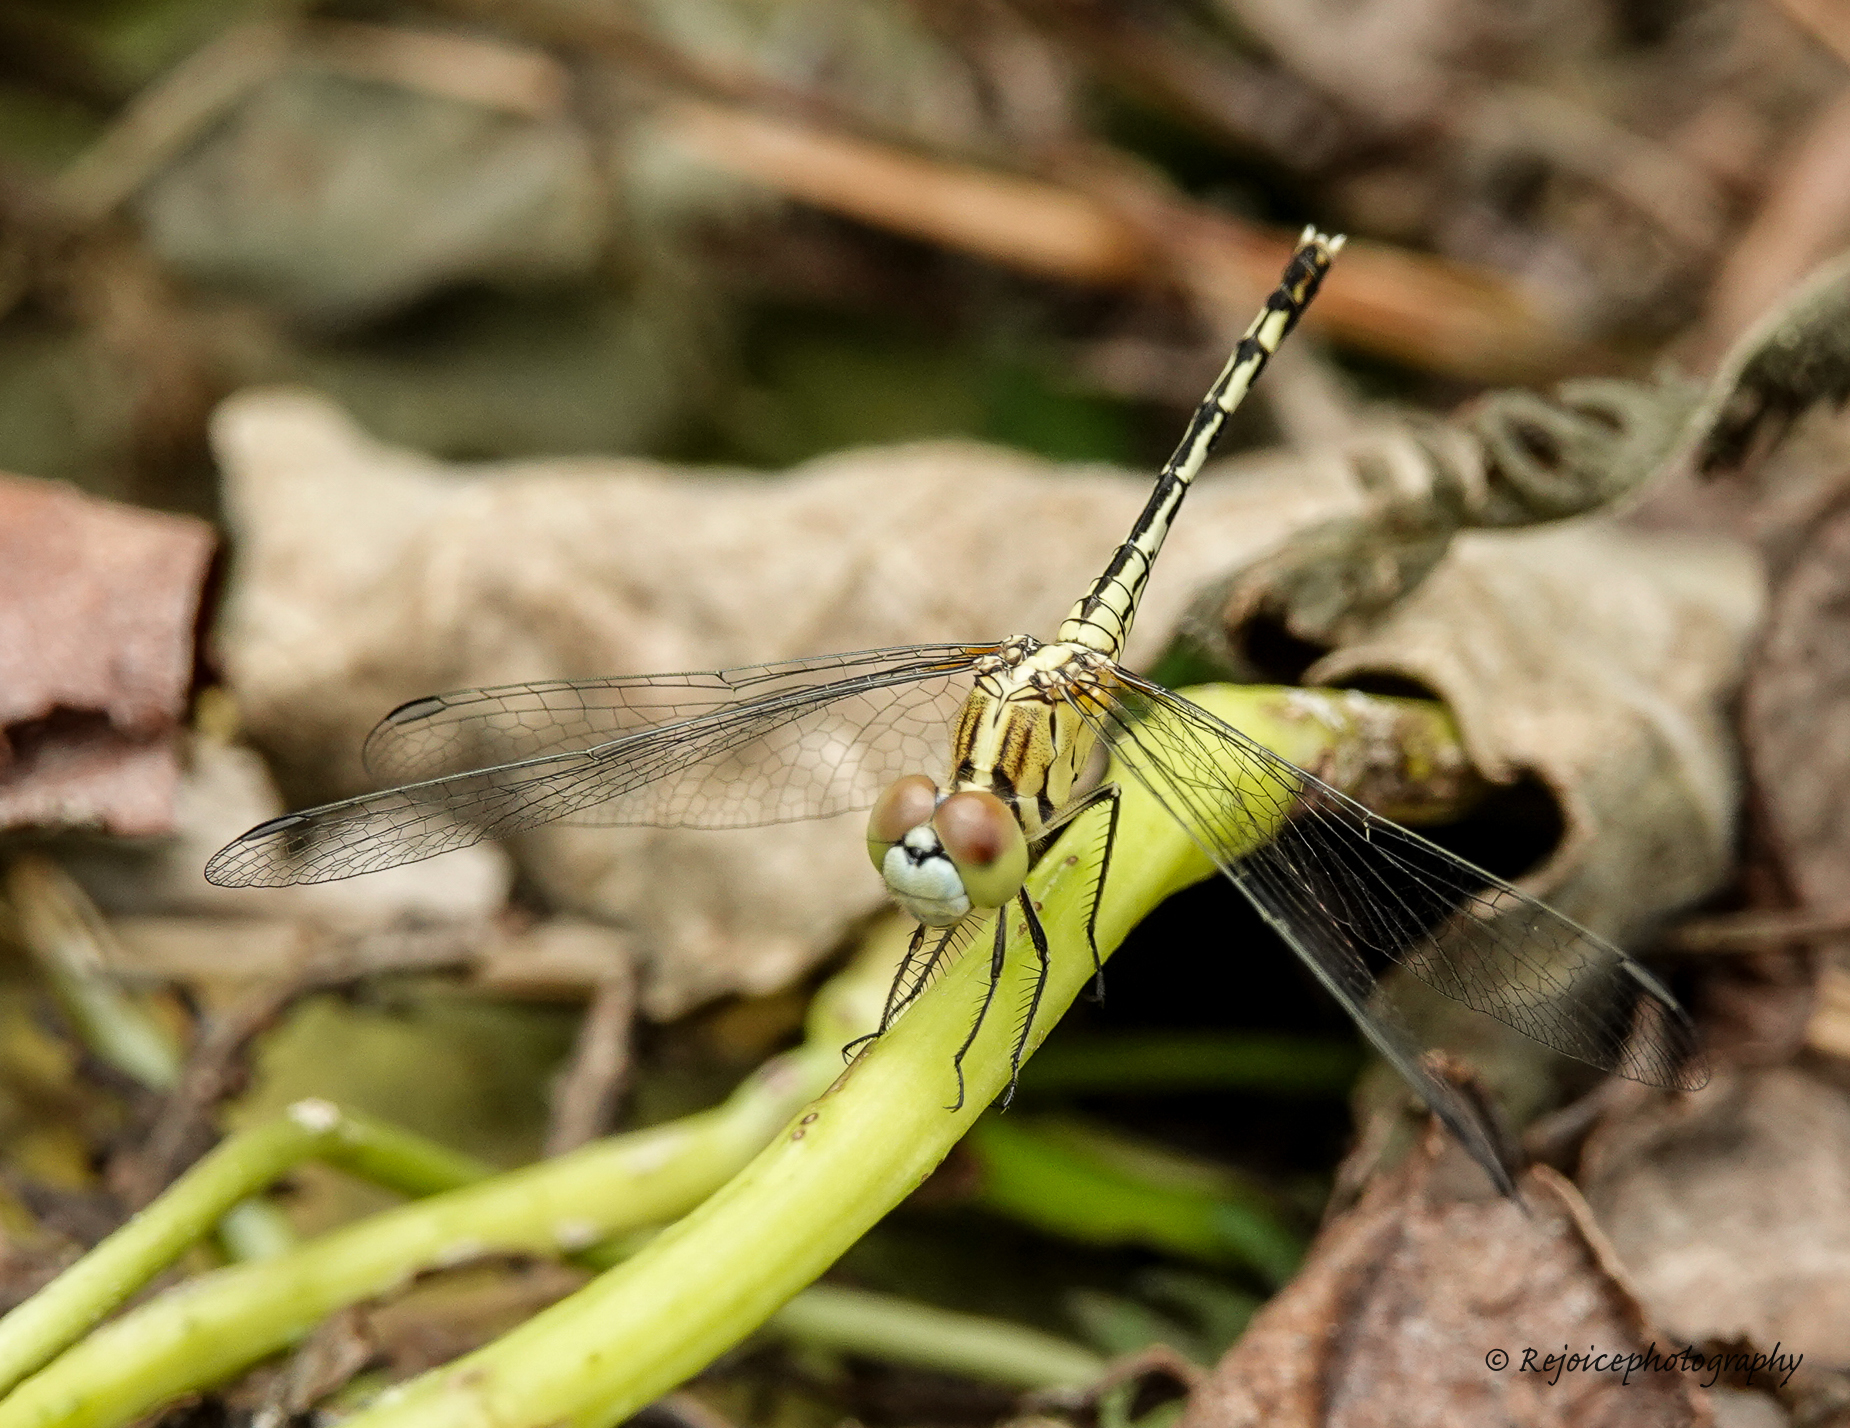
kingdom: Animalia
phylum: Arthropoda
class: Insecta
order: Odonata
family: Libellulidae
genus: Diplacodes
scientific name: Diplacodes trivialis
